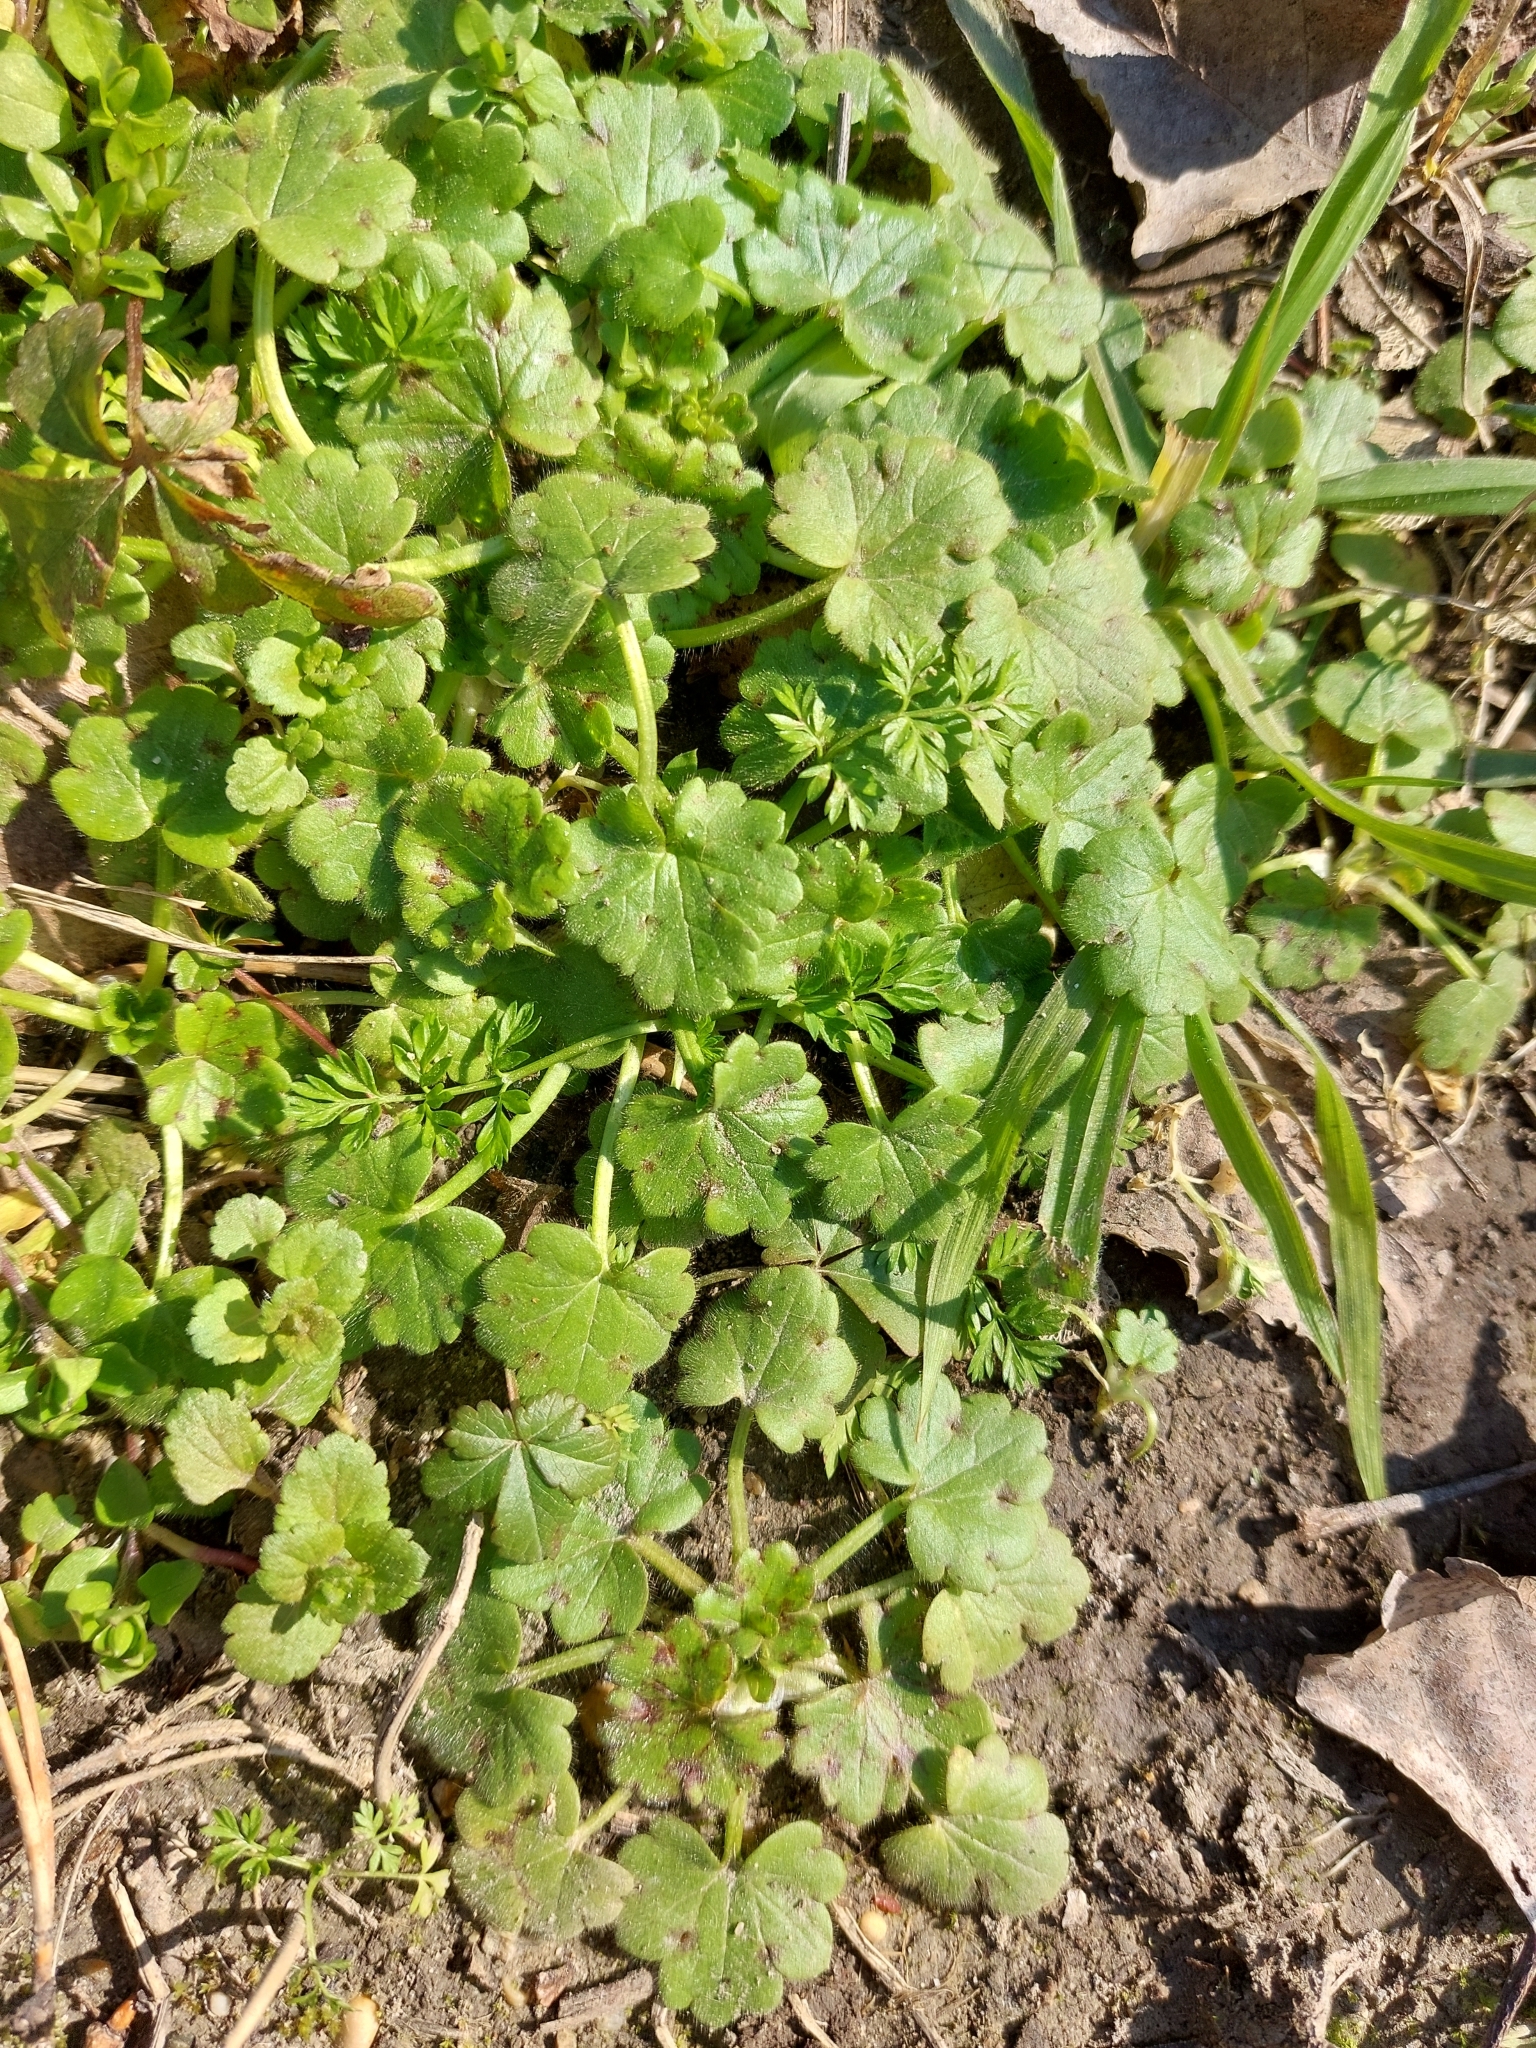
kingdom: Plantae
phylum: Tracheophyta
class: Magnoliopsida
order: Ranunculales
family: Ranunculaceae
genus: Ranunculus
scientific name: Ranunculus parviflorus
